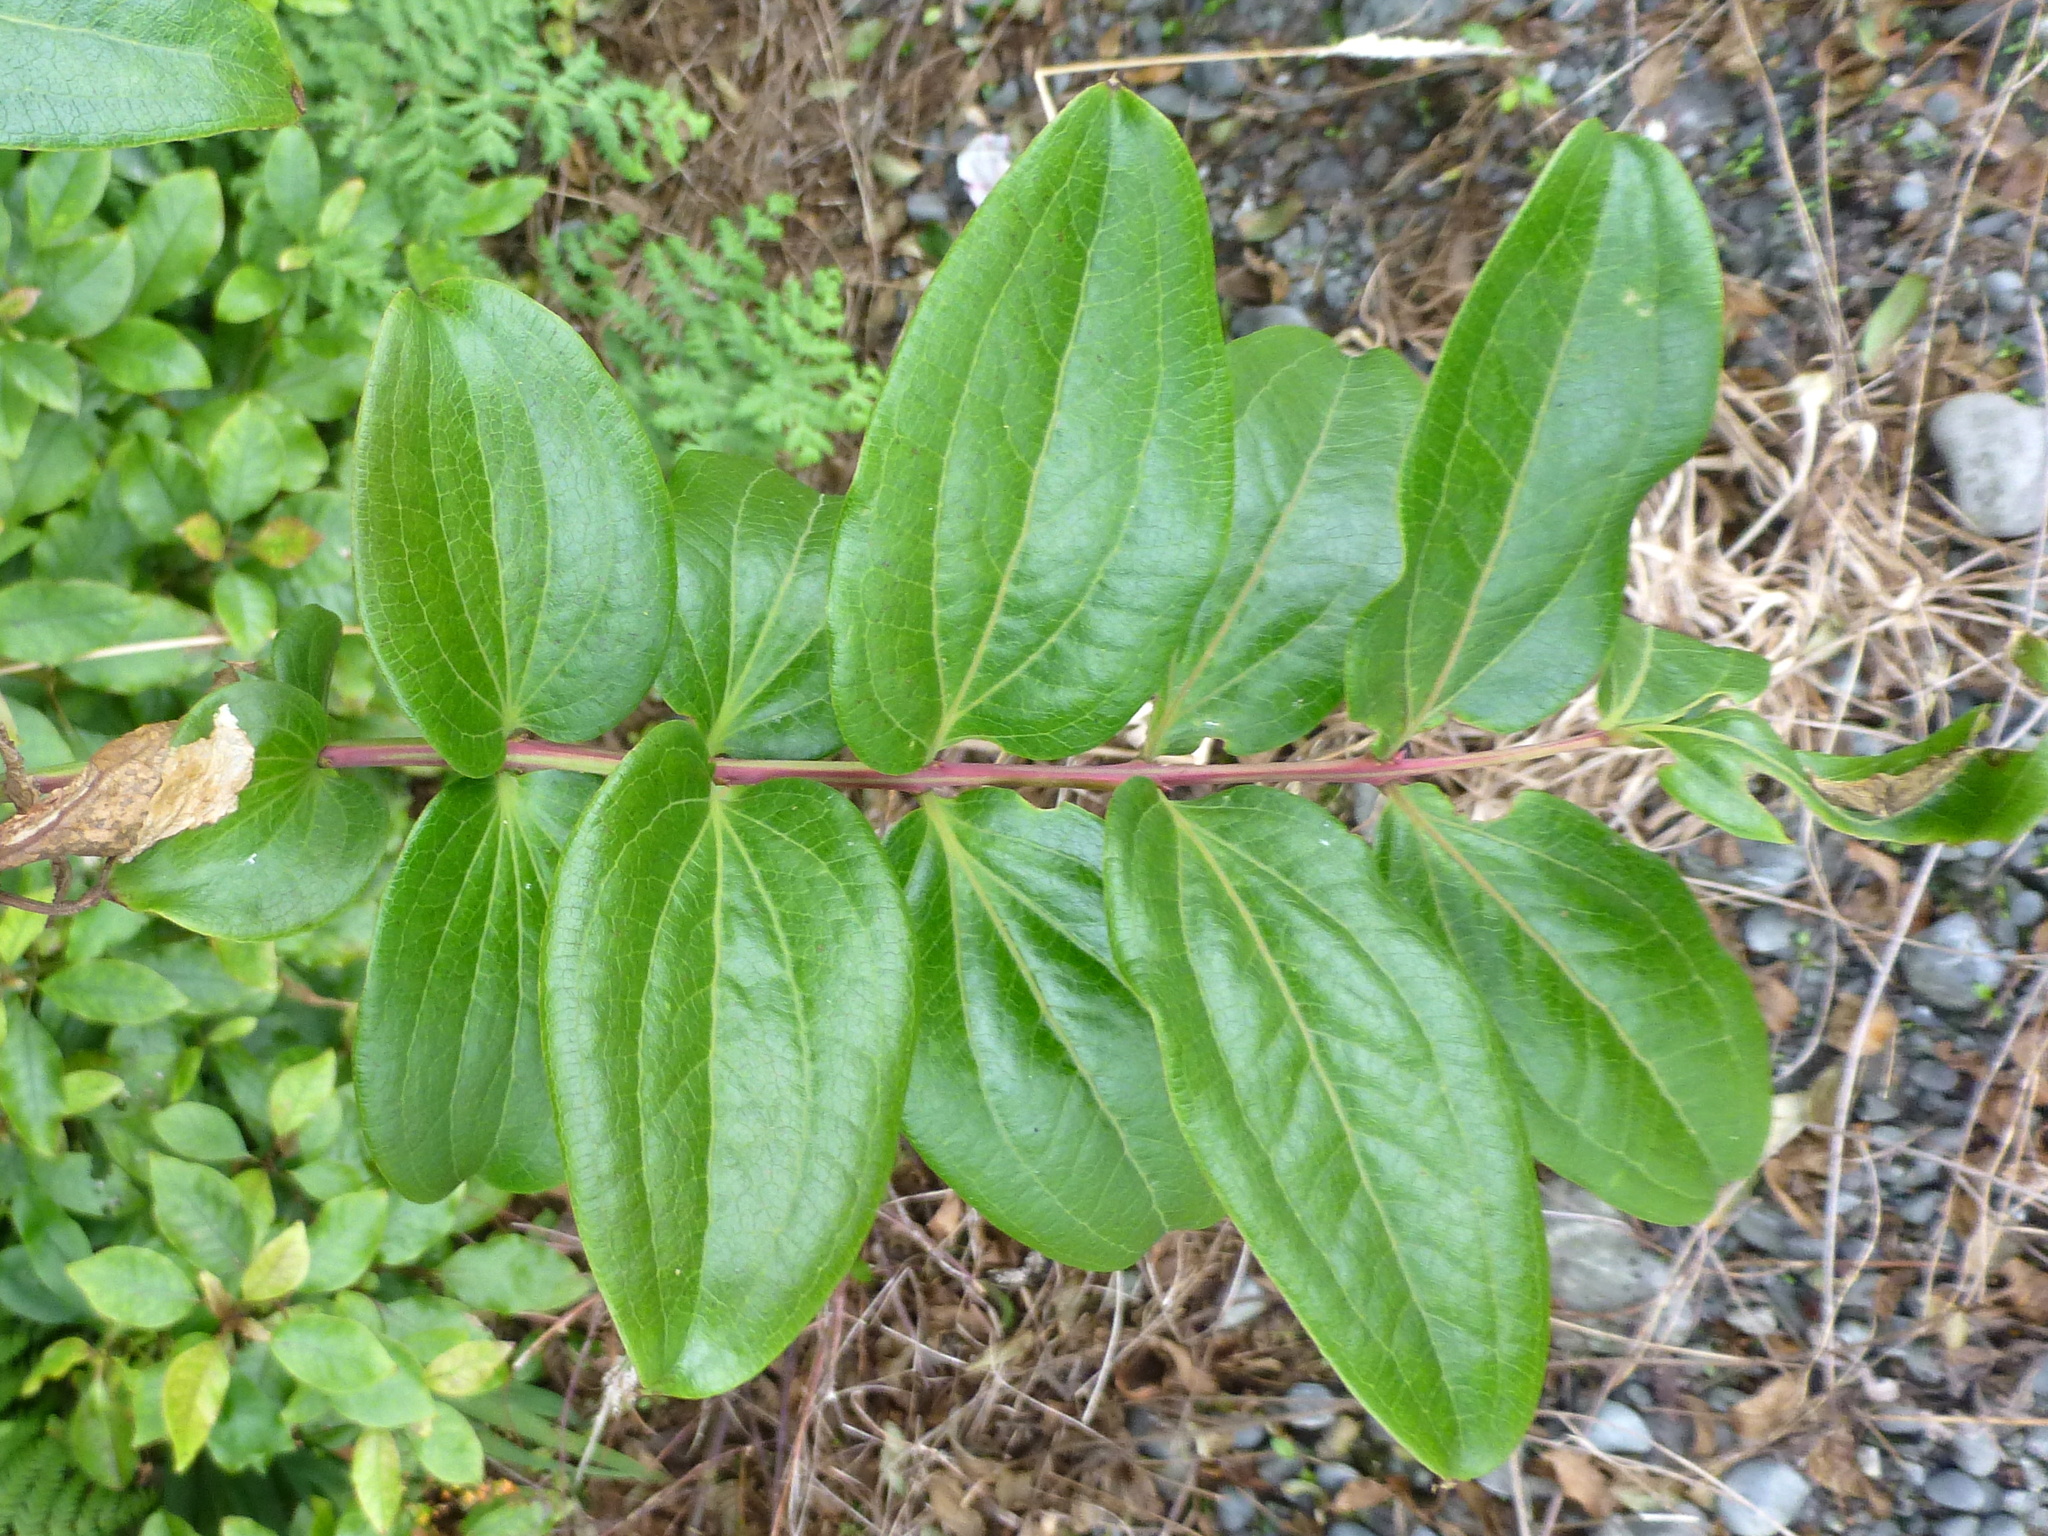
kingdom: Plantae
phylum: Tracheophyta
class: Magnoliopsida
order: Cucurbitales
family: Coriariaceae
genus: Coriaria
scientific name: Coriaria arborea
